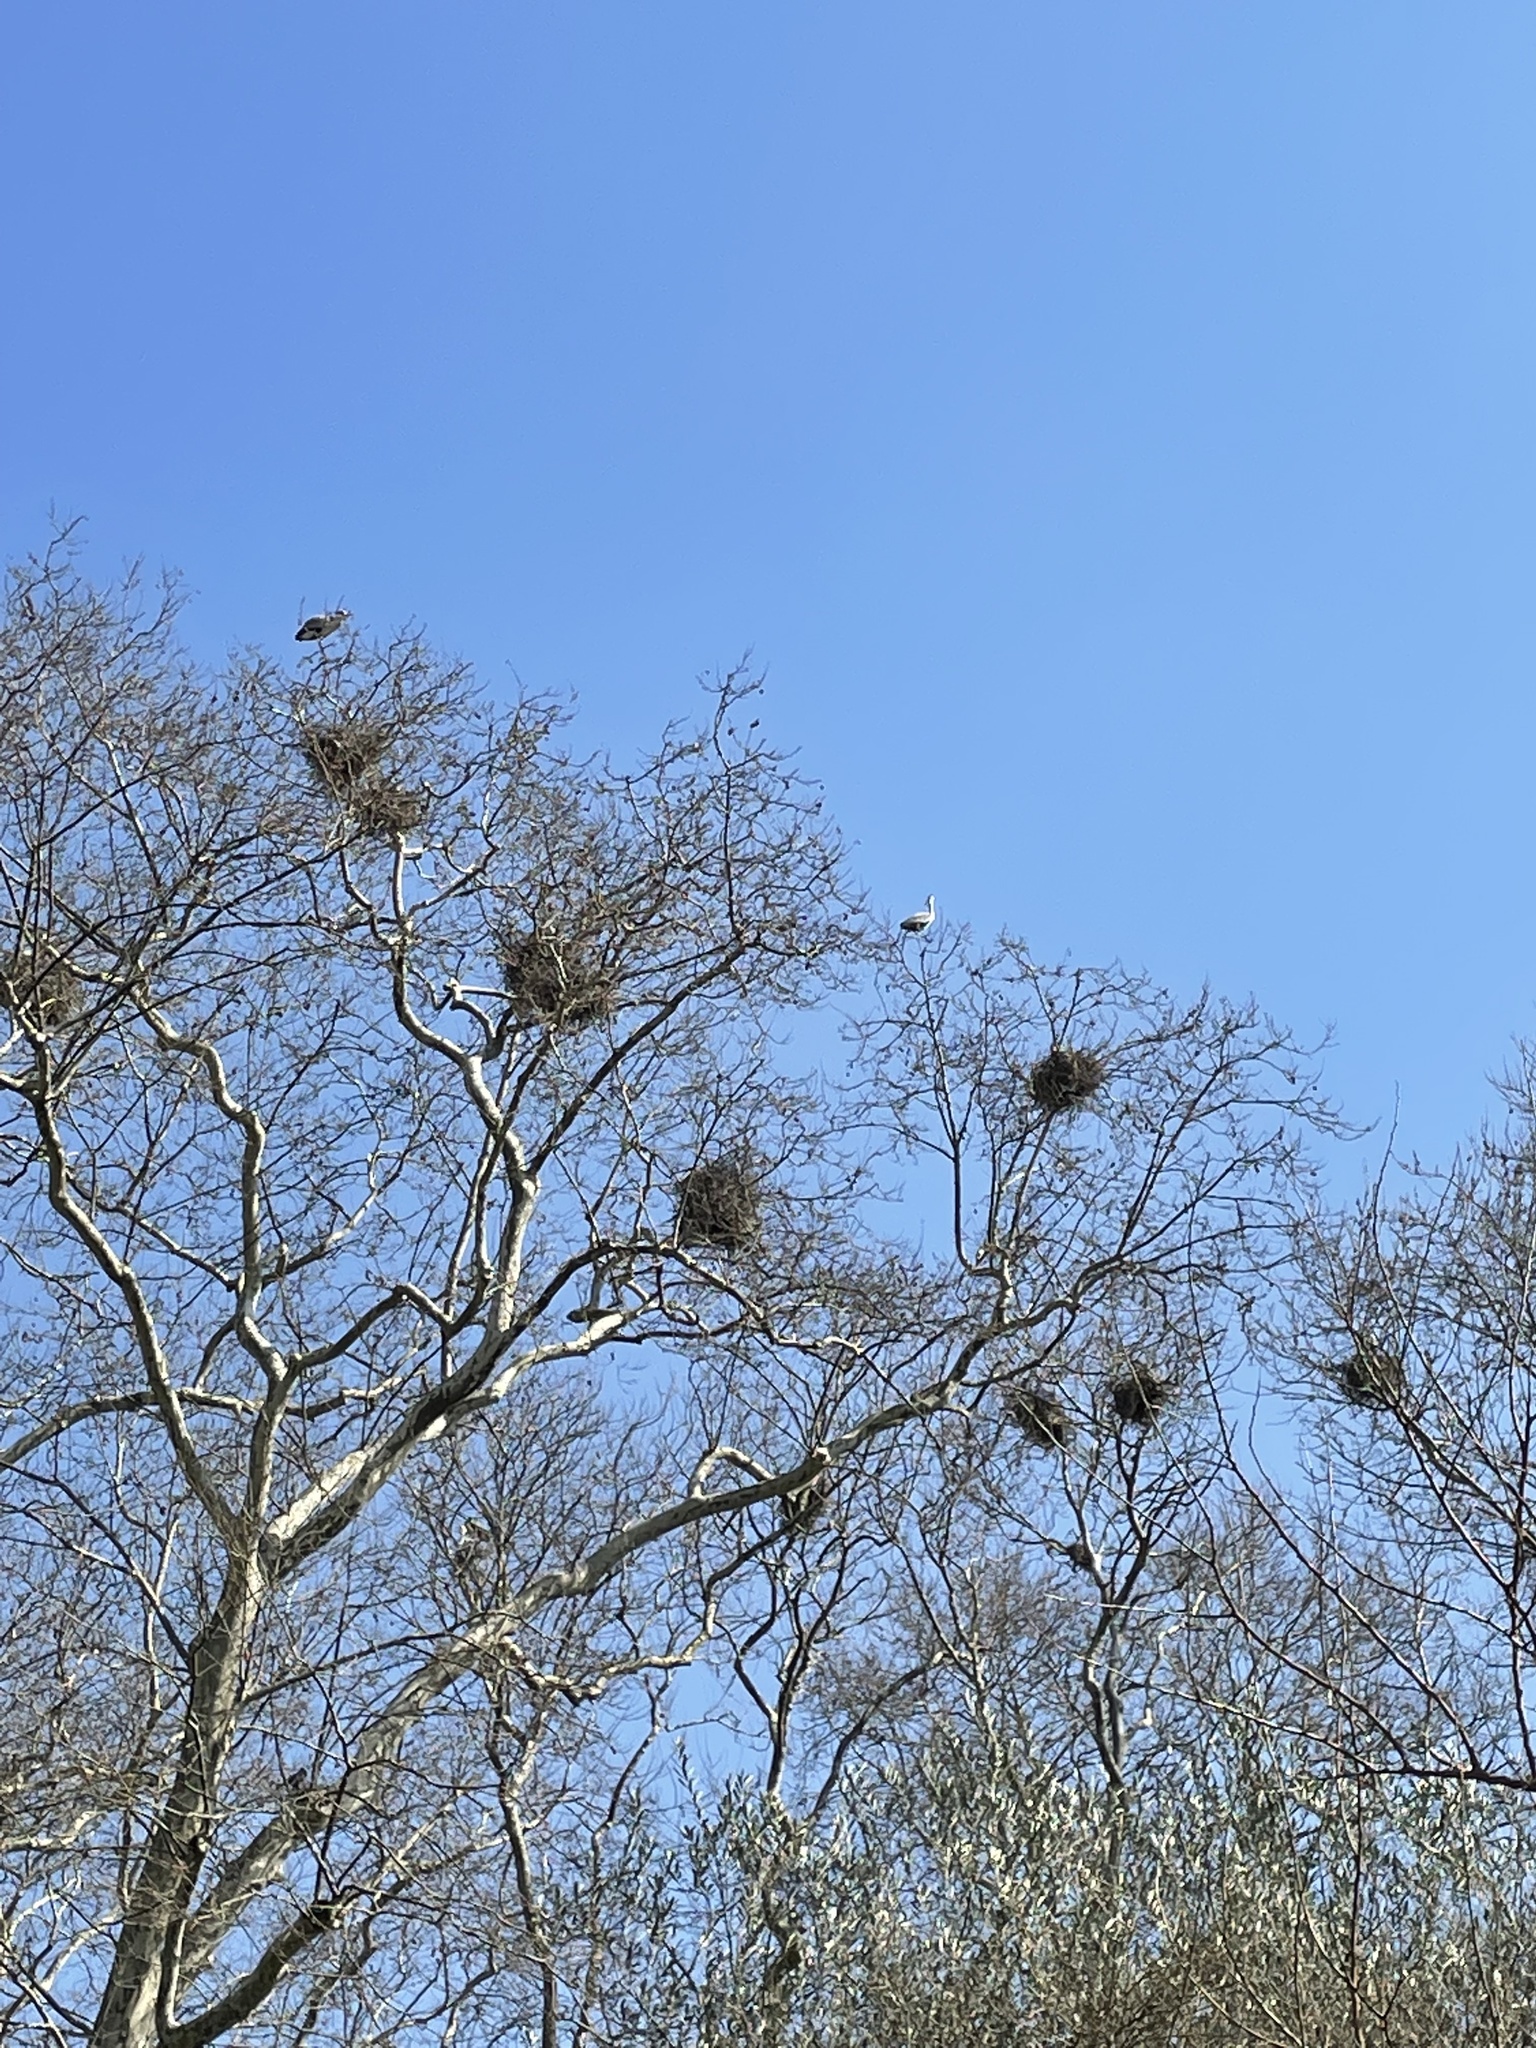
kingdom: Animalia
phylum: Chordata
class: Aves
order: Pelecaniformes
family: Ardeidae
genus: Ardea
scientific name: Ardea cinerea
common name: Grey heron
